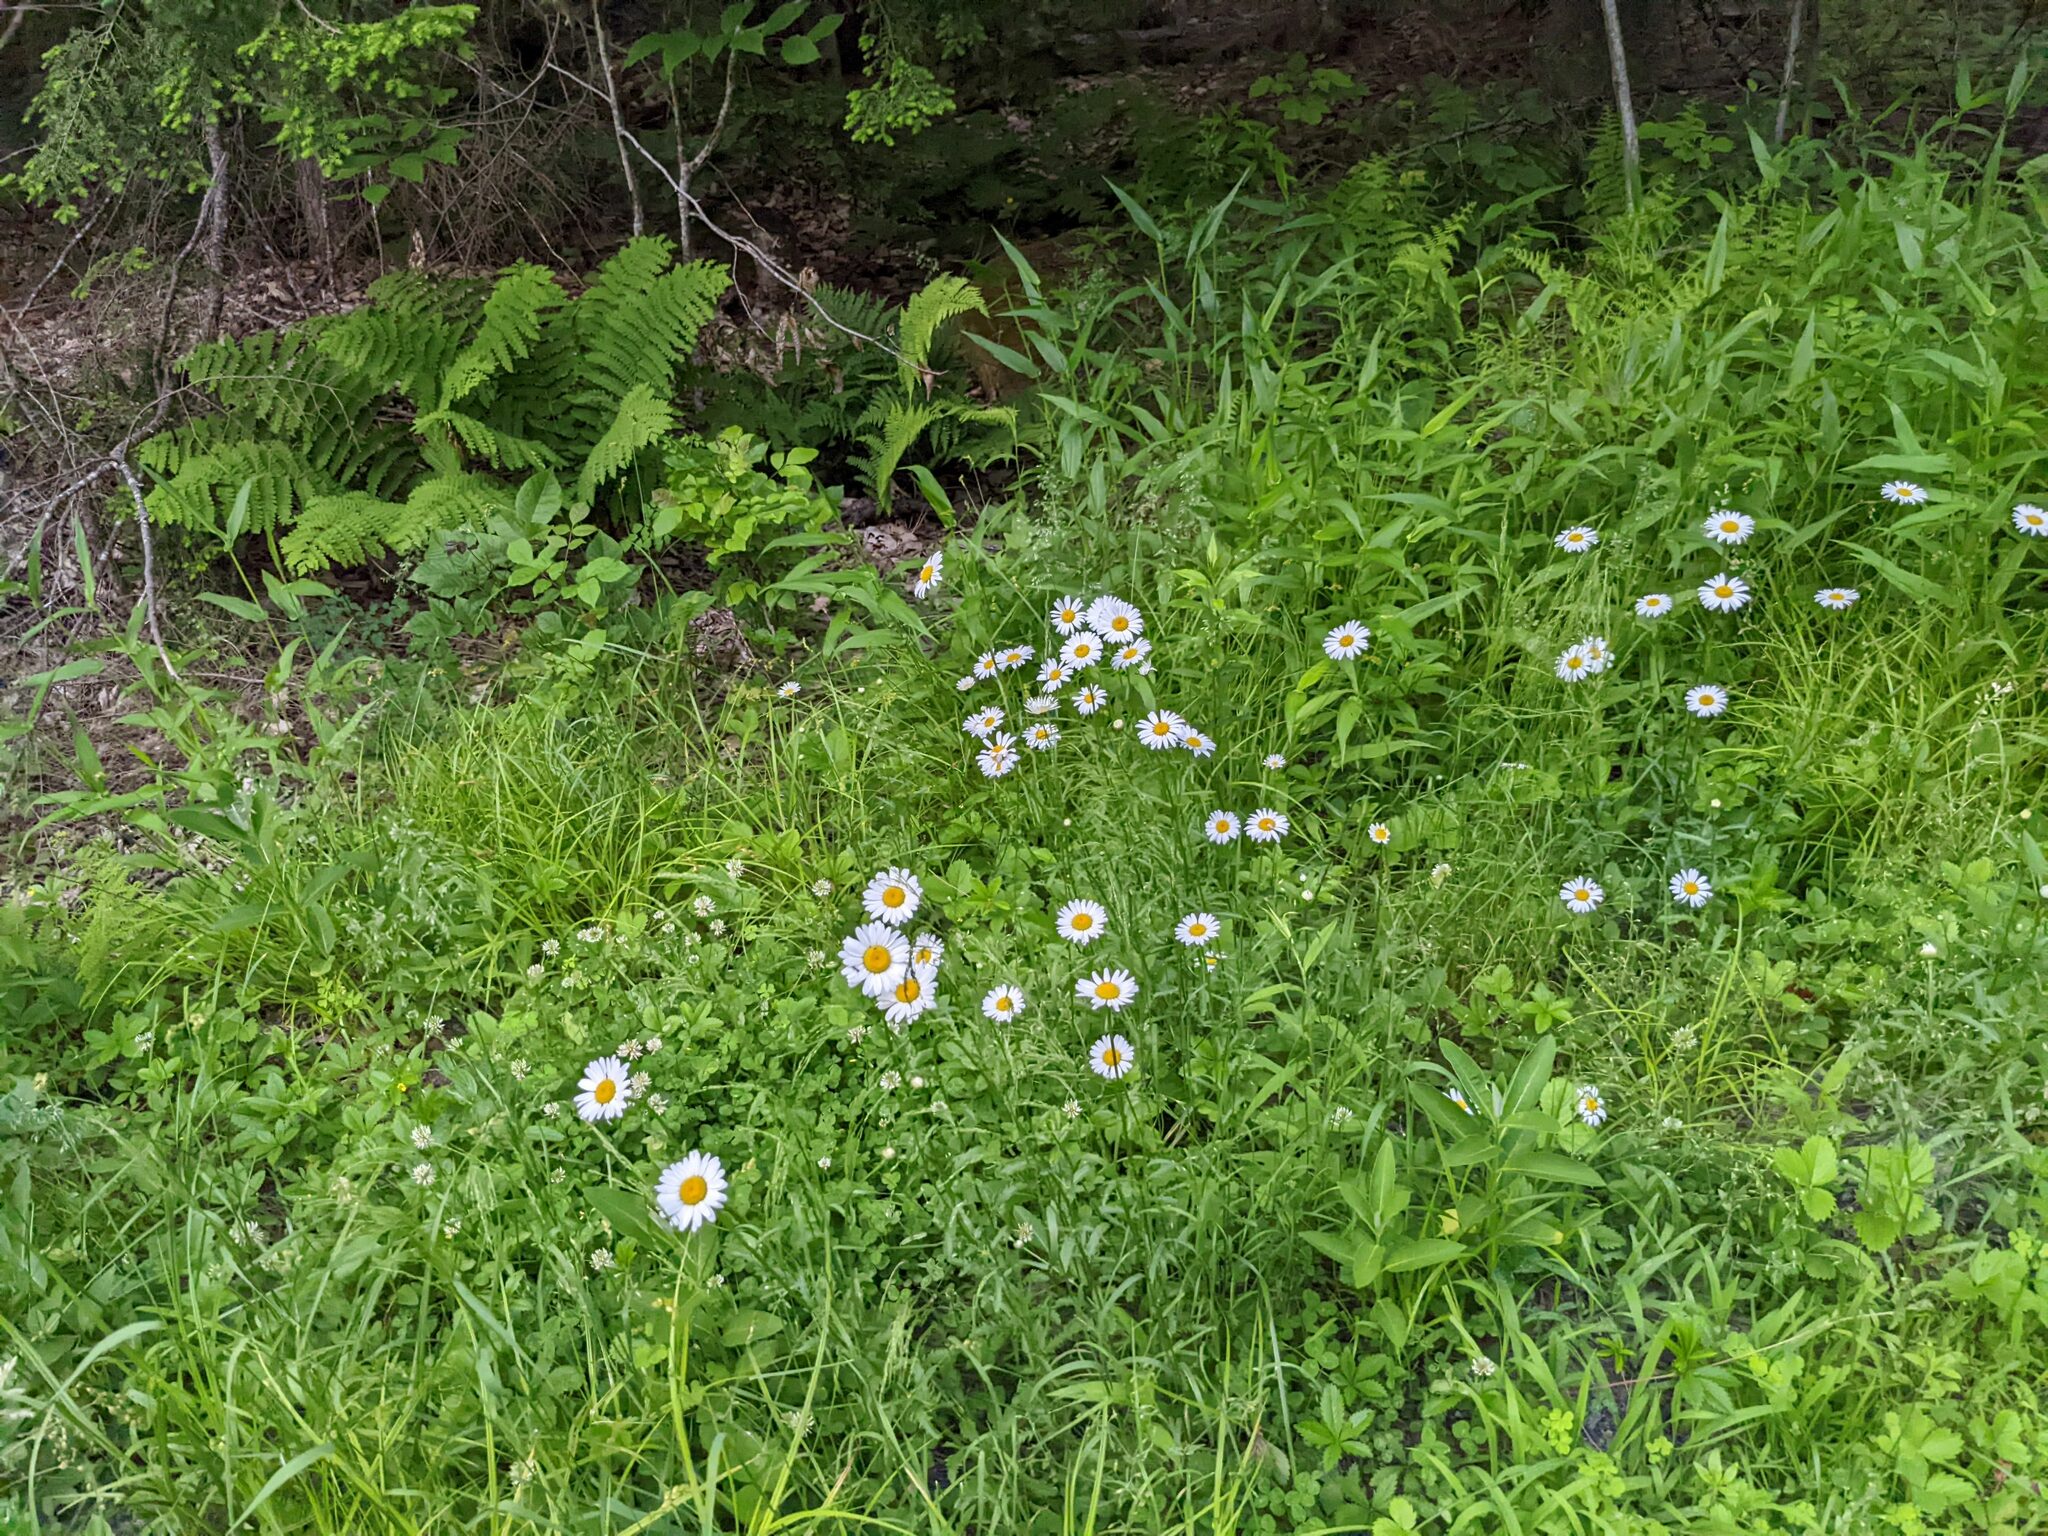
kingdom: Plantae
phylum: Tracheophyta
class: Magnoliopsida
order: Asterales
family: Asteraceae
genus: Leucanthemum
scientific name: Leucanthemum vulgare
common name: Oxeye daisy
